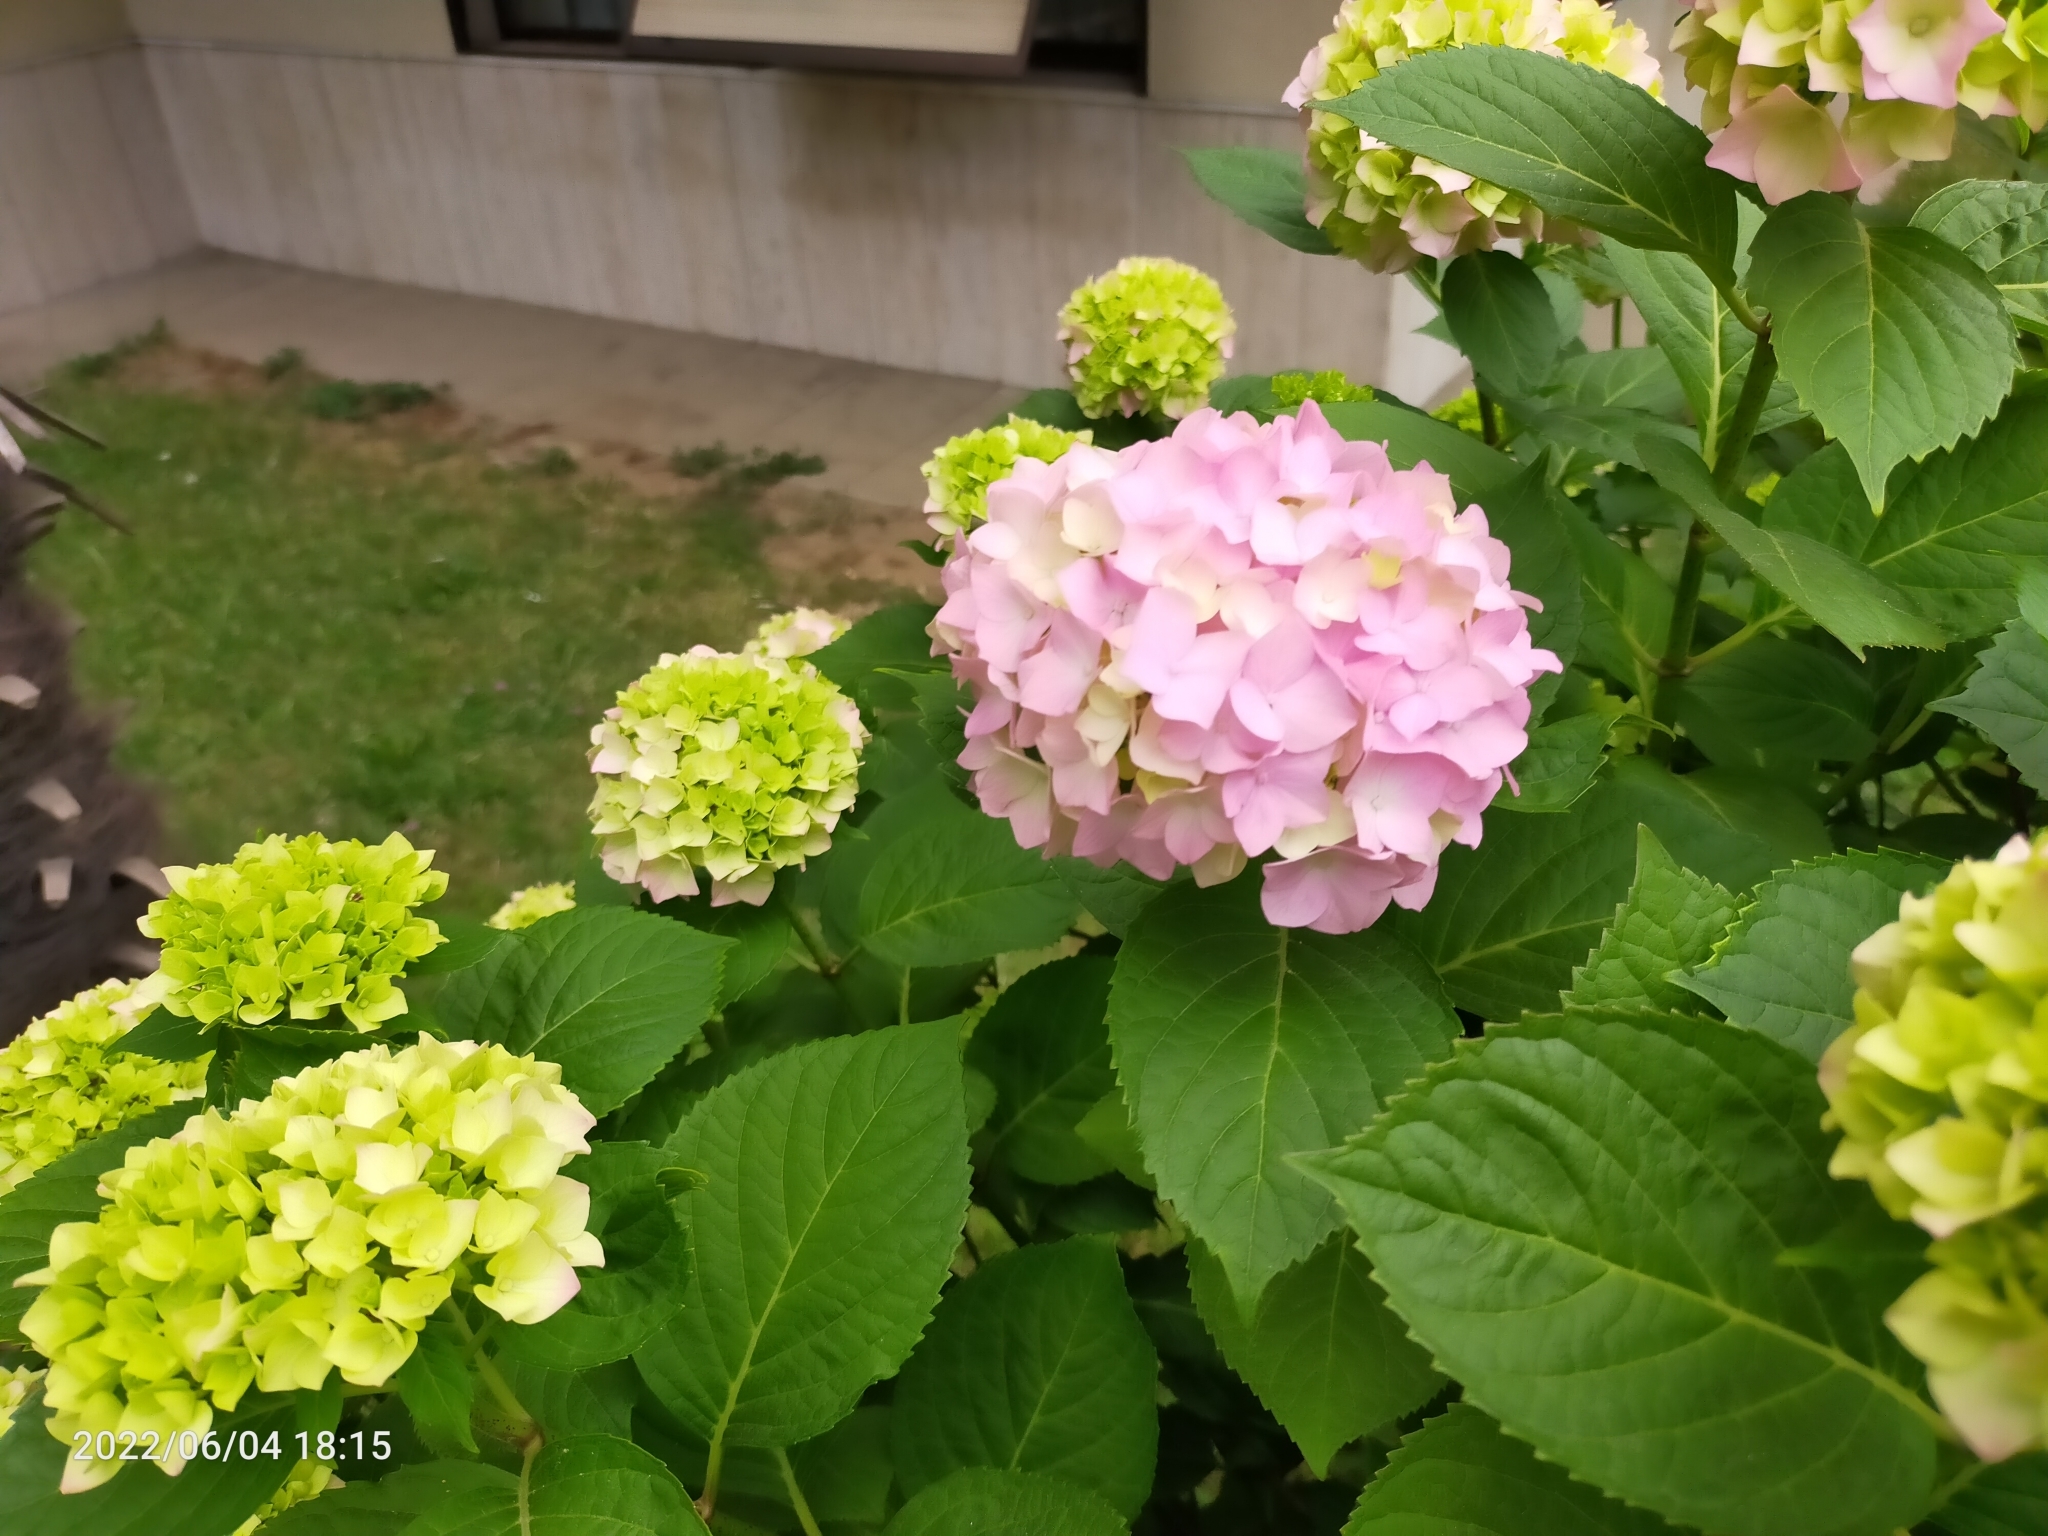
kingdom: Plantae
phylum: Tracheophyta
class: Magnoliopsida
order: Cornales
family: Hydrangeaceae
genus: Hydrangea
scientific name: Hydrangea macrophylla
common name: Hydrangea
